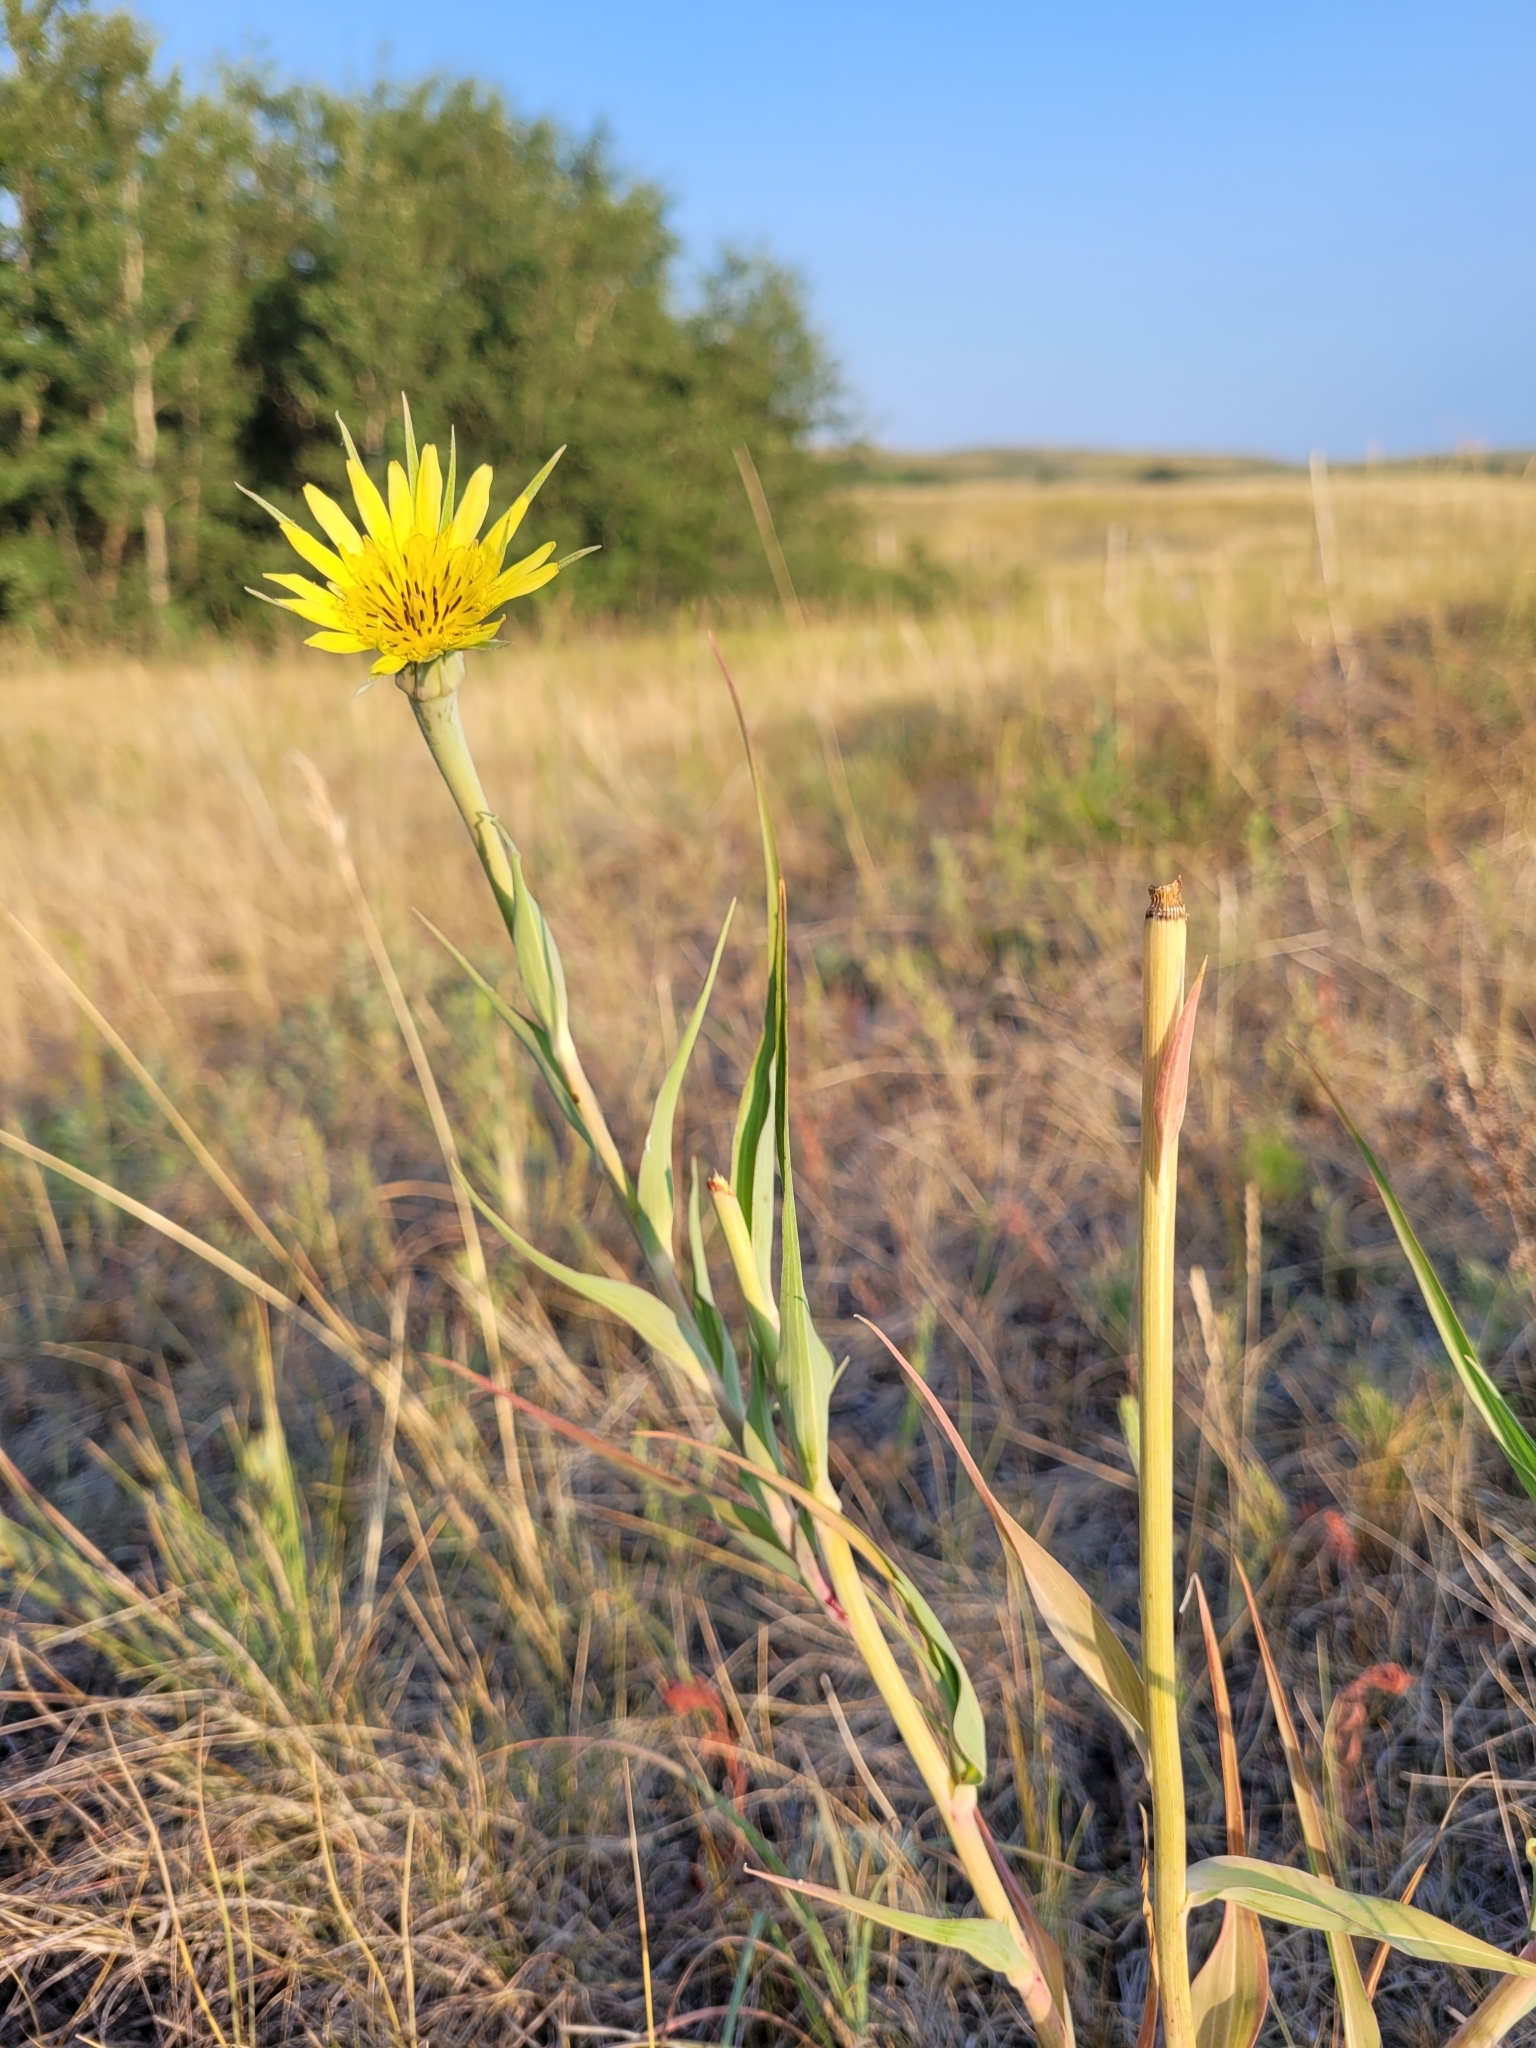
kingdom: Plantae
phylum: Tracheophyta
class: Magnoliopsida
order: Asterales
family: Asteraceae
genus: Tragopogon
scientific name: Tragopogon dubius
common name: Yellow salsify
